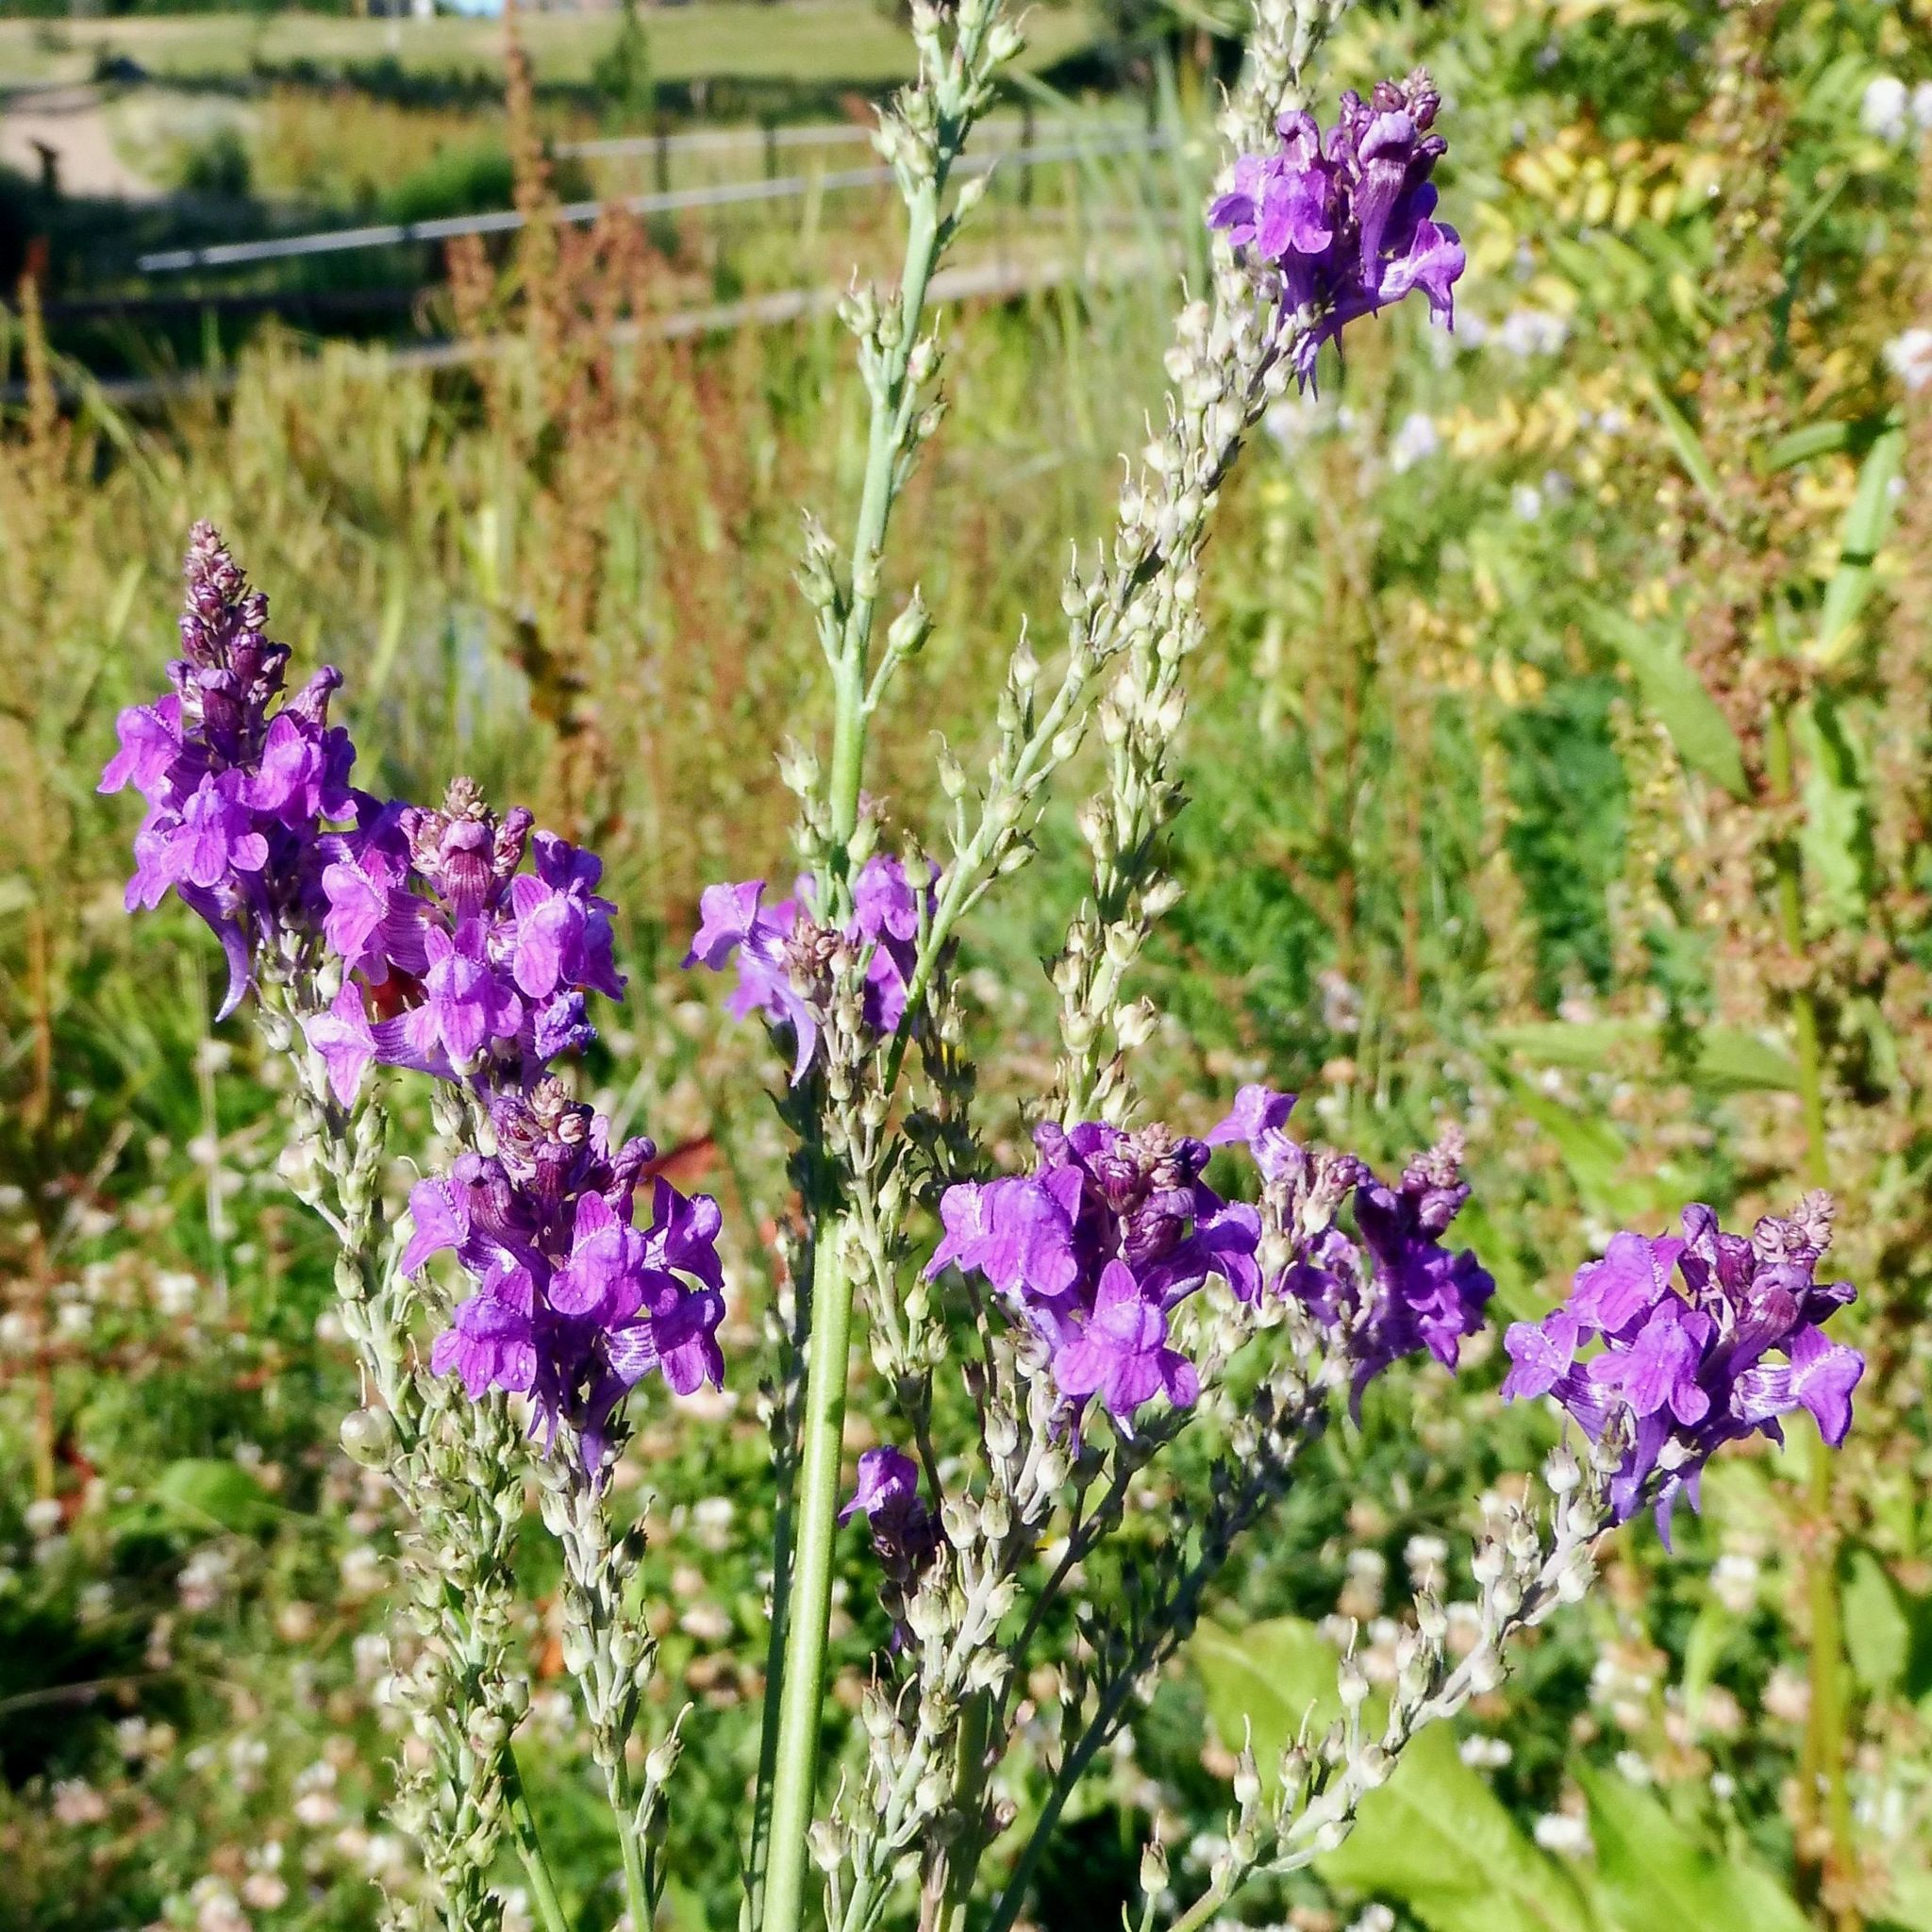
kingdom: Plantae
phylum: Tracheophyta
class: Magnoliopsida
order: Lamiales
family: Plantaginaceae
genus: Linaria
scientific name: Linaria purpurea
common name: Purple toadflax
